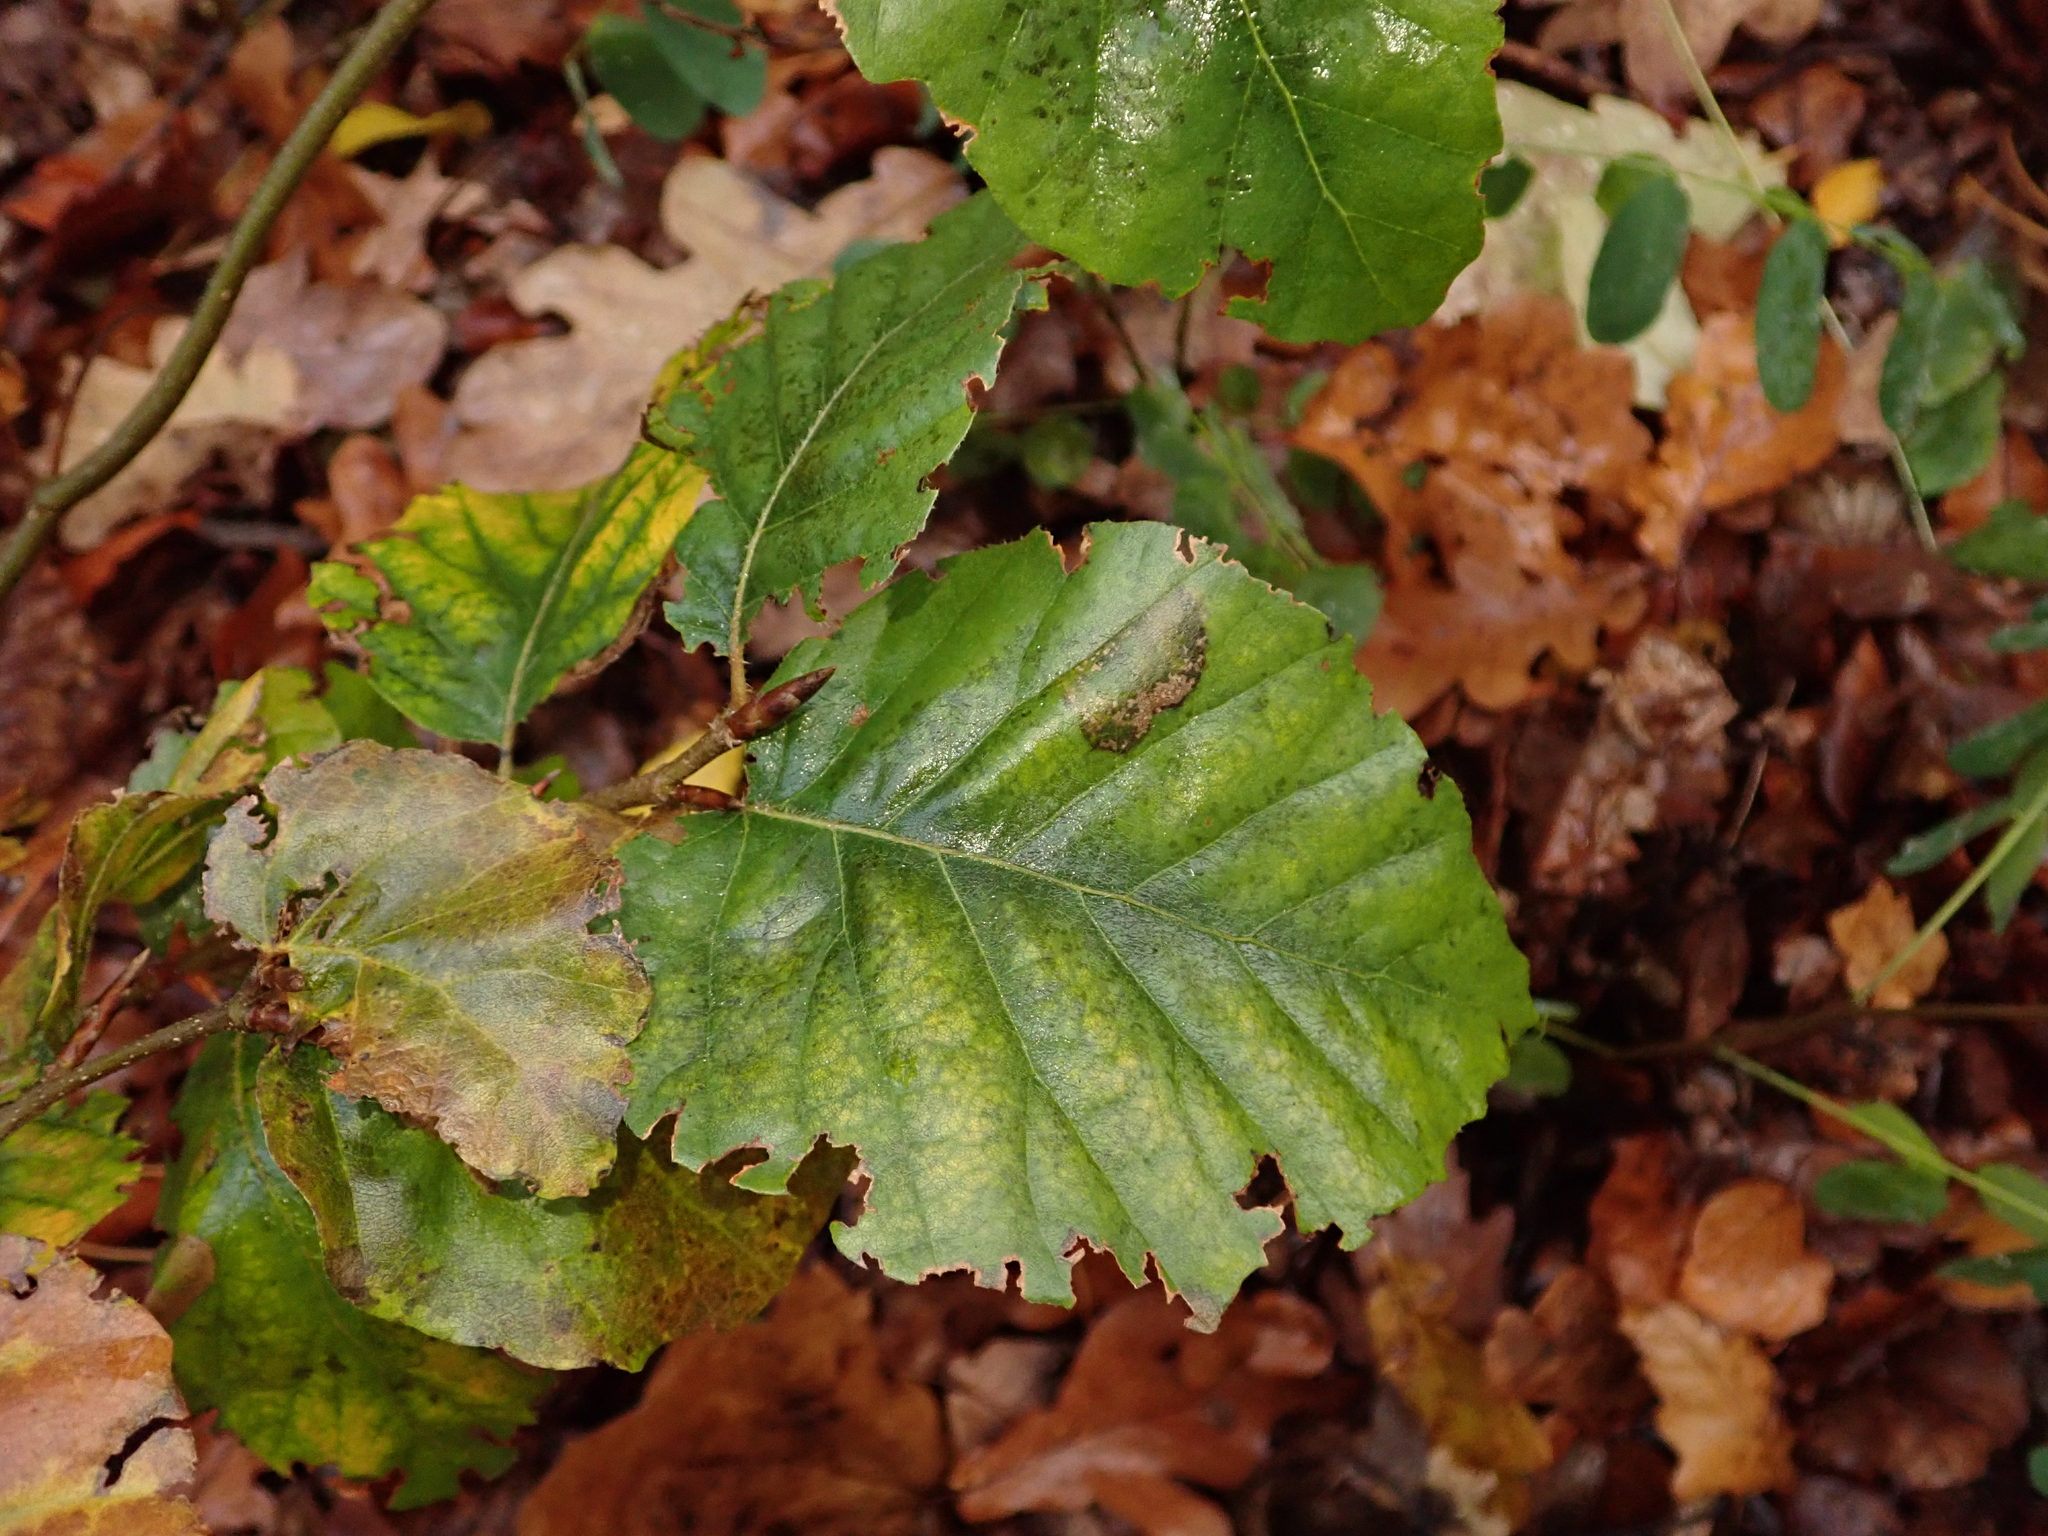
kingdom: Plantae
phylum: Tracheophyta
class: Magnoliopsida
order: Fagales
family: Fagaceae
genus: Fagus
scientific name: Fagus sylvatica
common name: Beech
